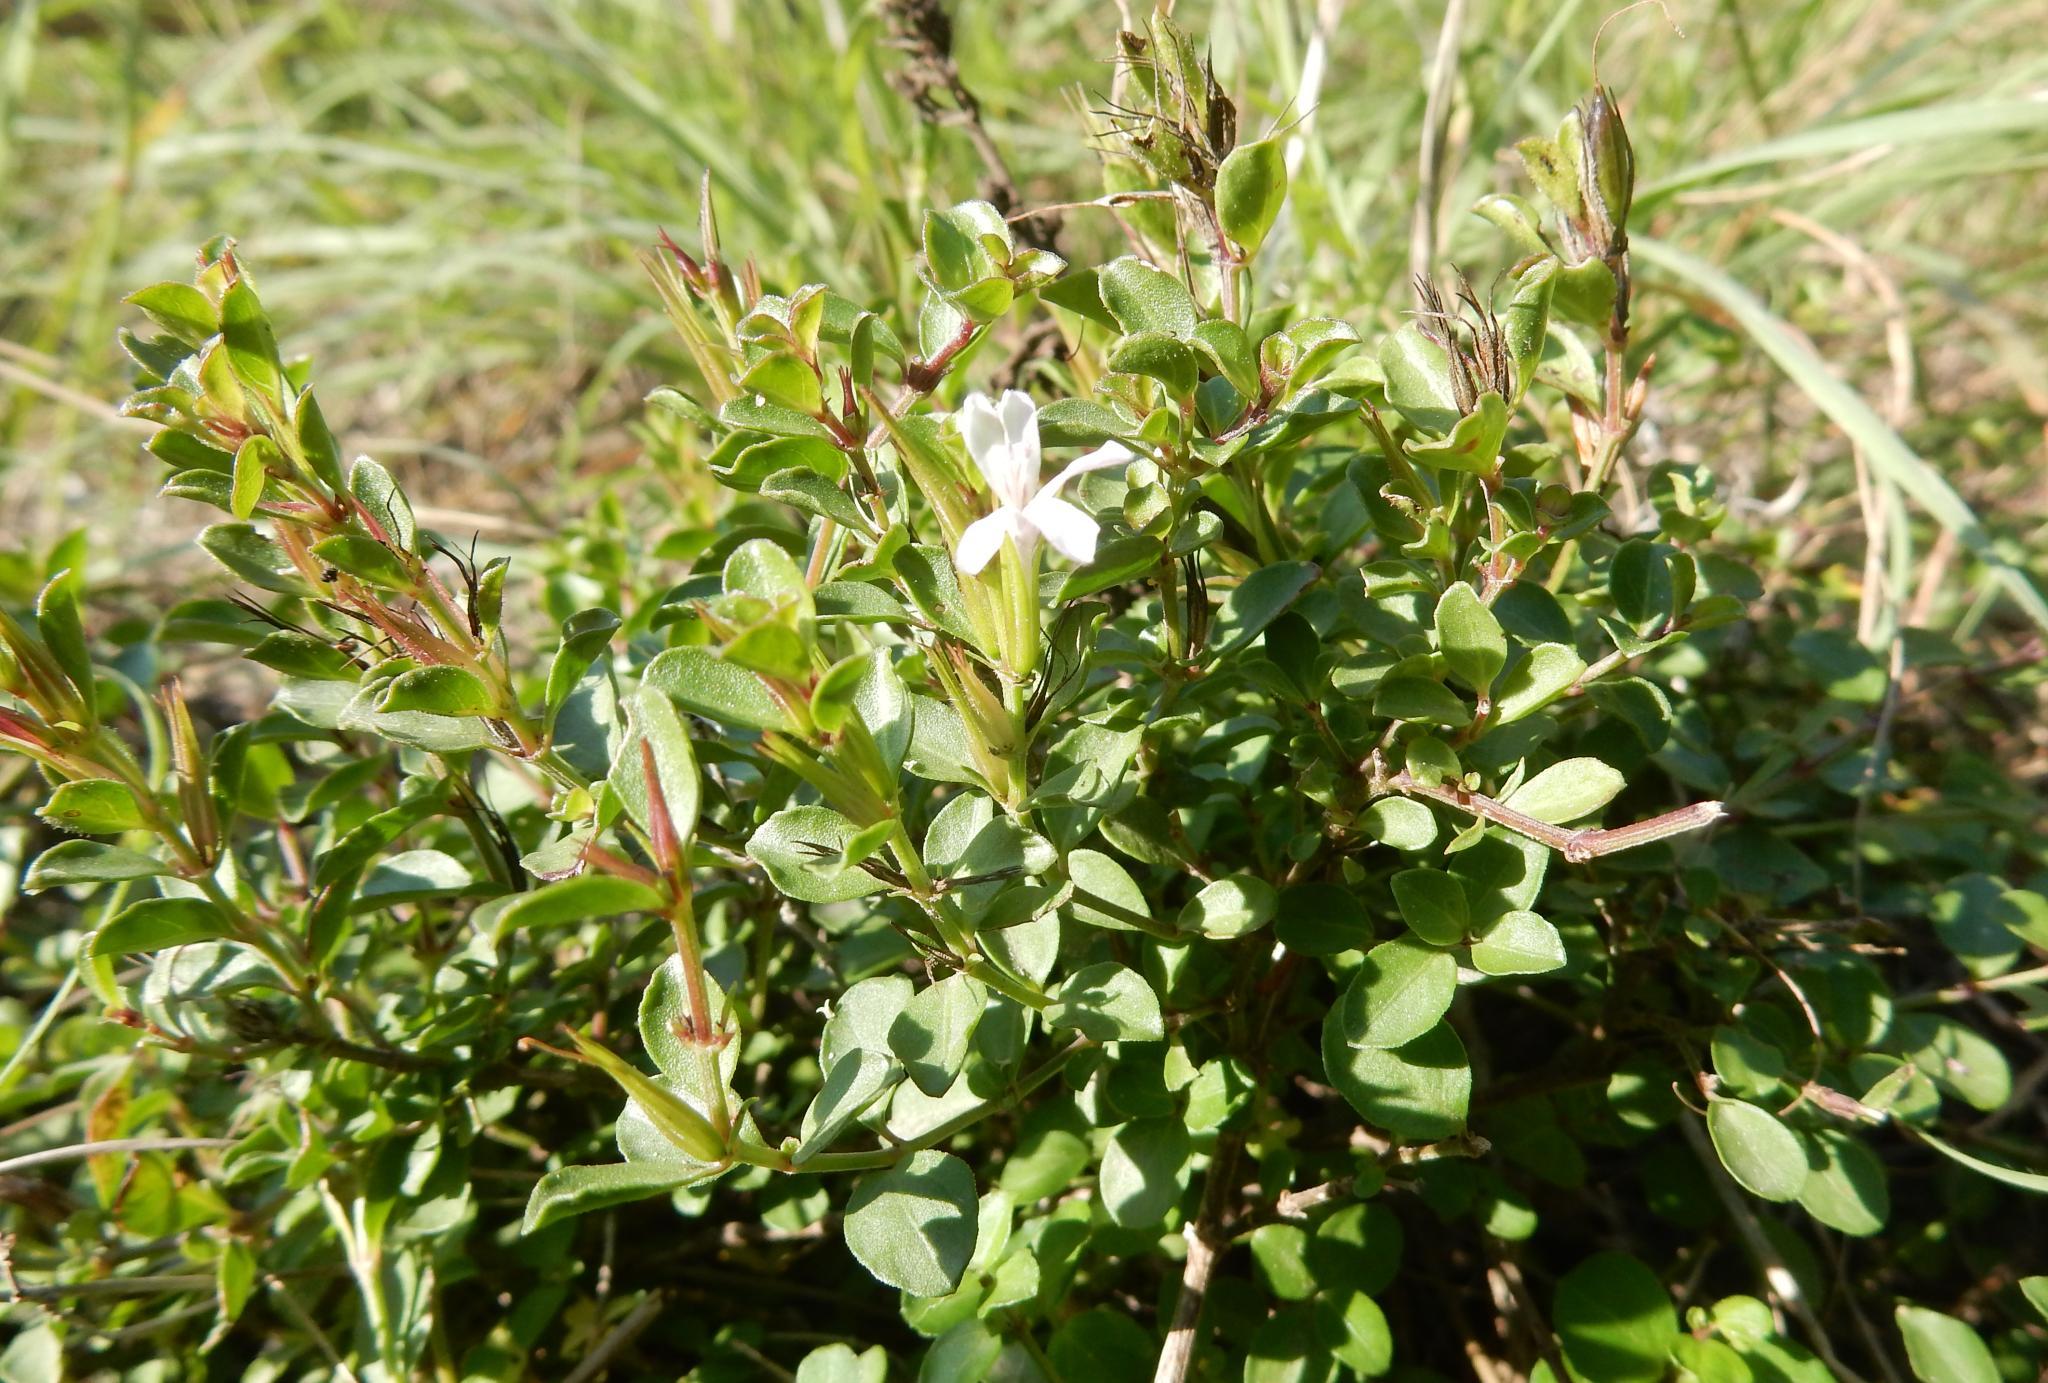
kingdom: Plantae
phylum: Tracheophyta
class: Magnoliopsida
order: Lamiales
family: Acanthaceae
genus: Dyschoriste
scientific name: Dyschoriste setigera
